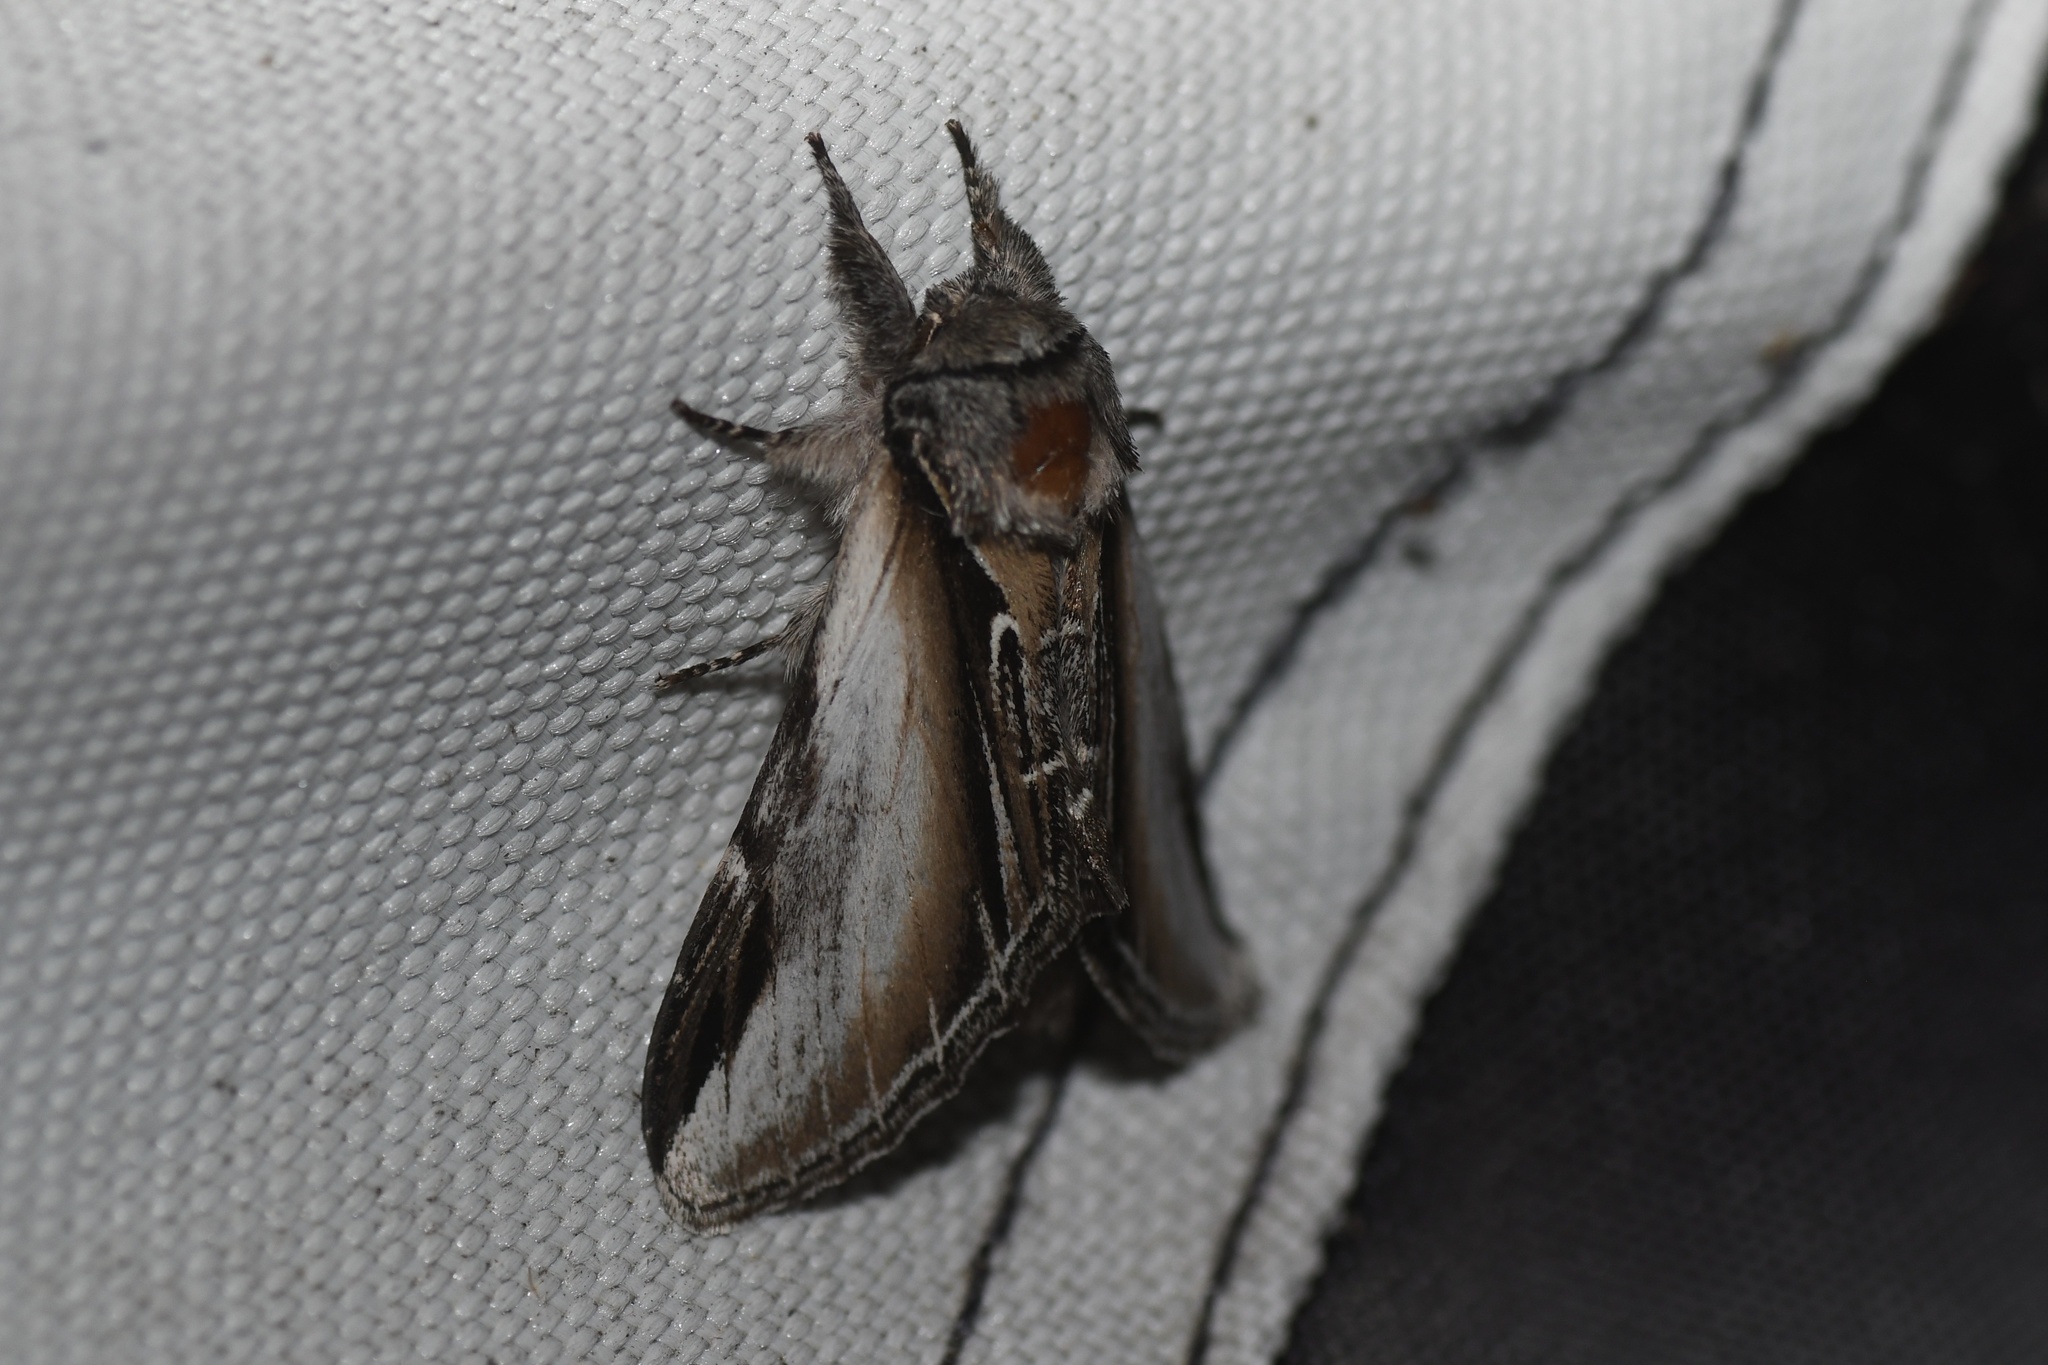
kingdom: Animalia
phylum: Arthropoda
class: Insecta
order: Lepidoptera
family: Notodontidae
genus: Pheosia
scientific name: Pheosia rimosa
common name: Black-rimmed prominent
